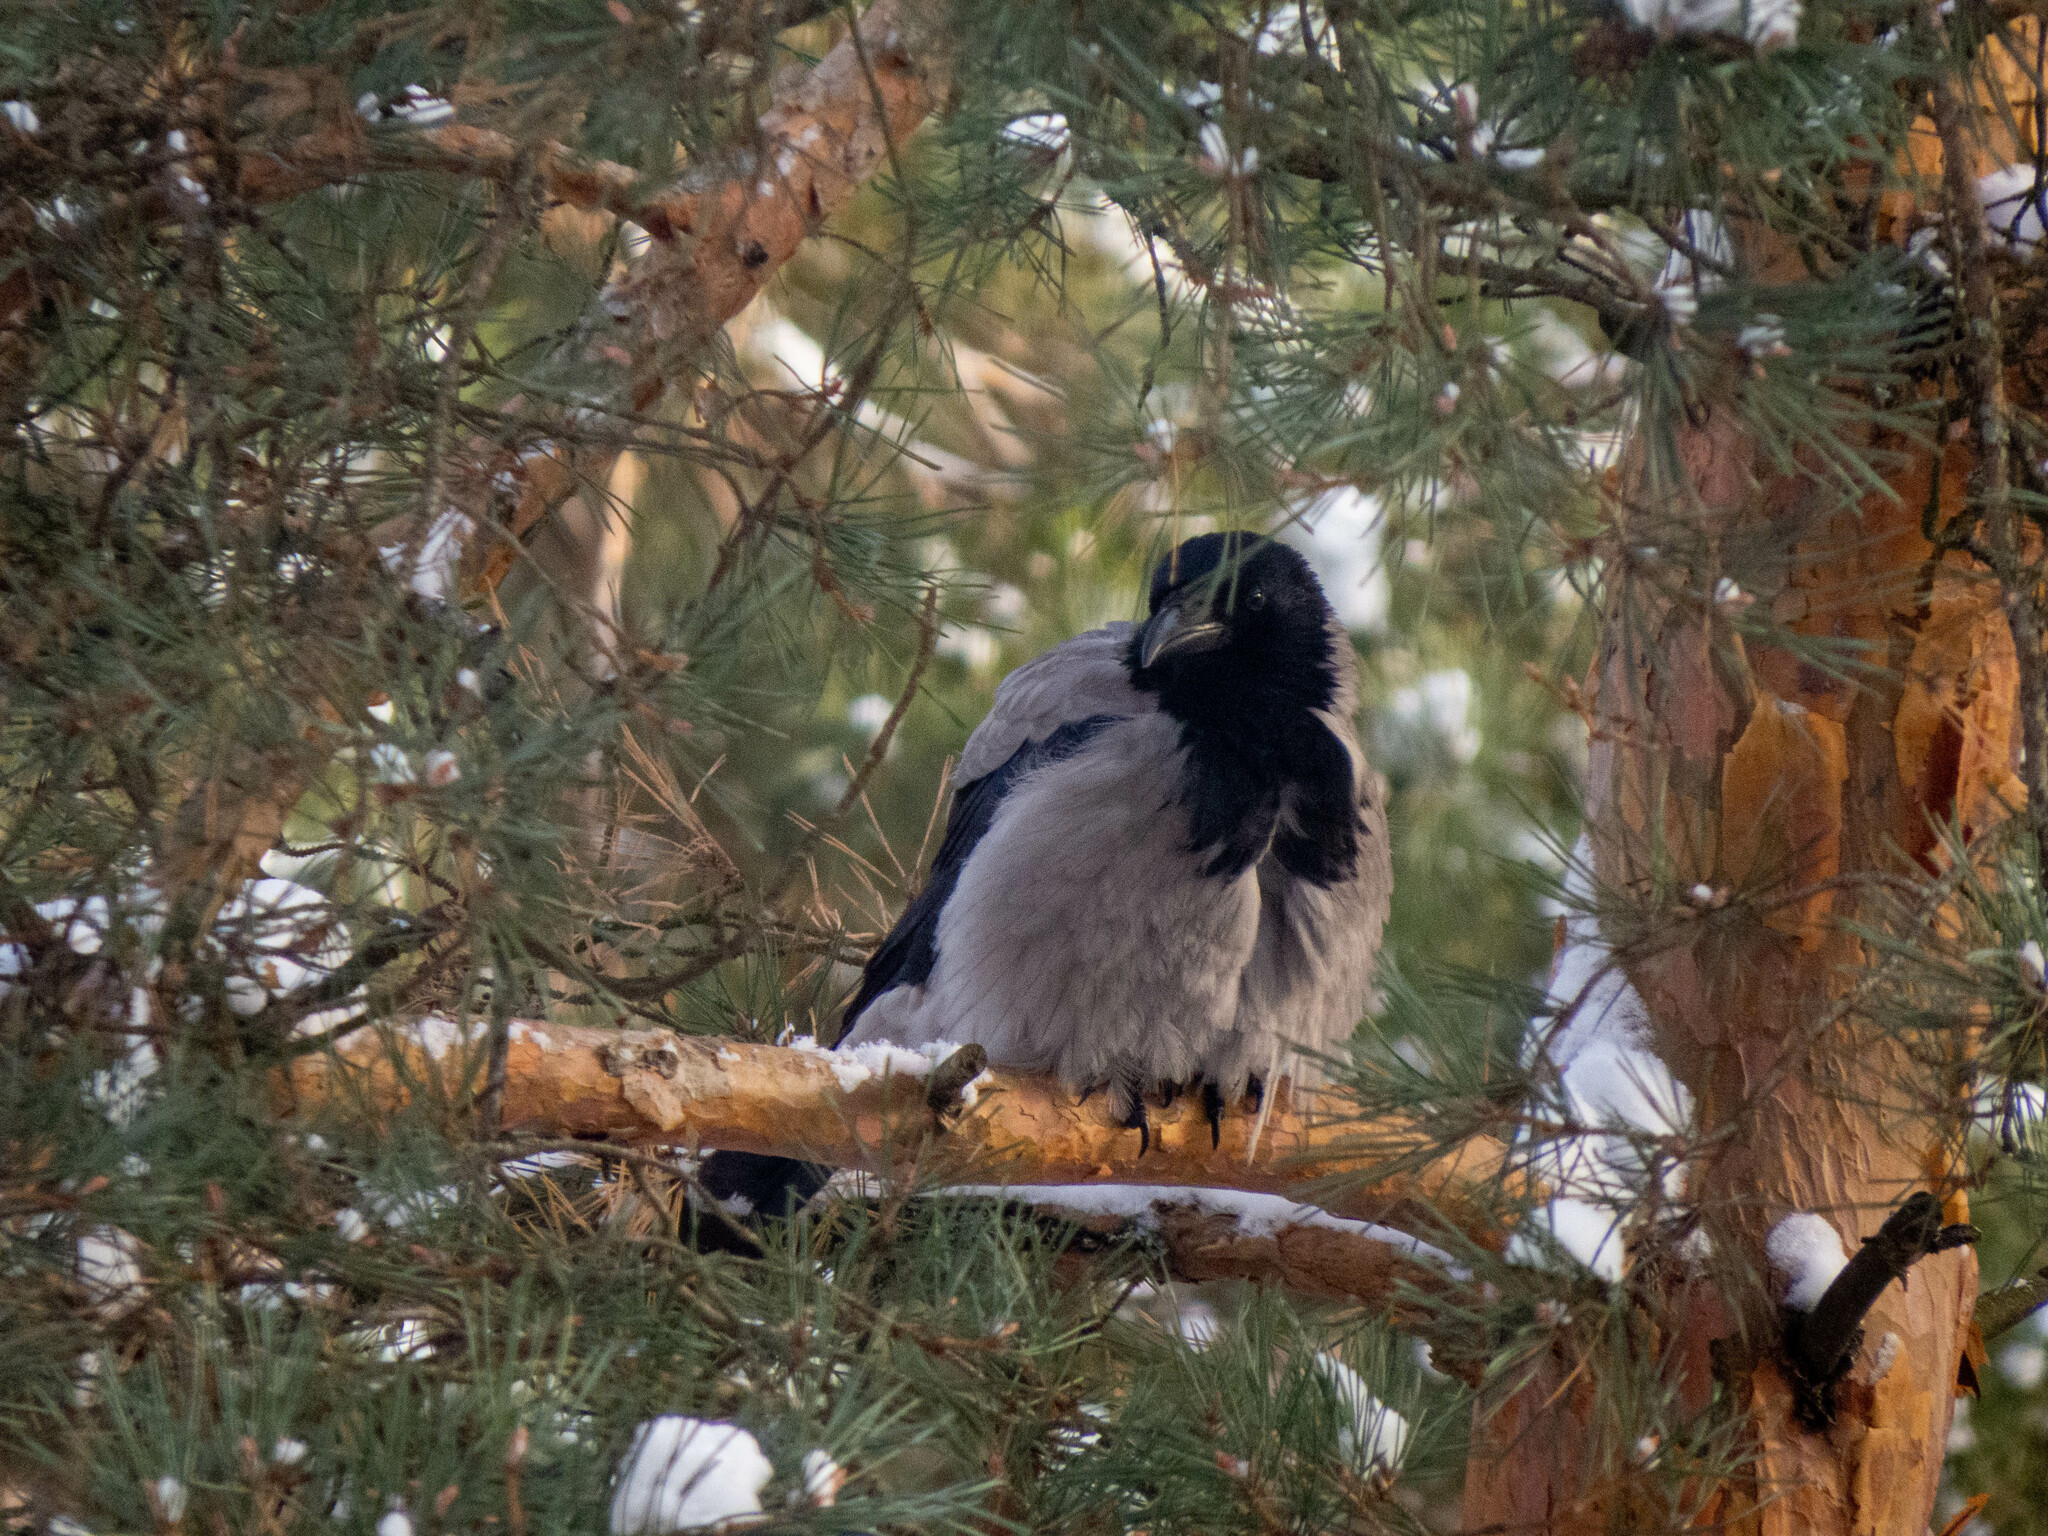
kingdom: Animalia
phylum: Chordata
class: Aves
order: Passeriformes
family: Corvidae
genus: Corvus
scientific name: Corvus cornix
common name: Hooded crow
